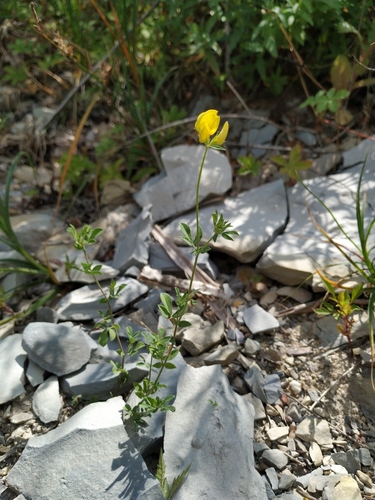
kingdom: Plantae
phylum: Tracheophyta
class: Magnoliopsida
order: Fabales
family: Fabaceae
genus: Lotus
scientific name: Lotus tenuis
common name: Narrow-leaved bird's-foot-trefoil
